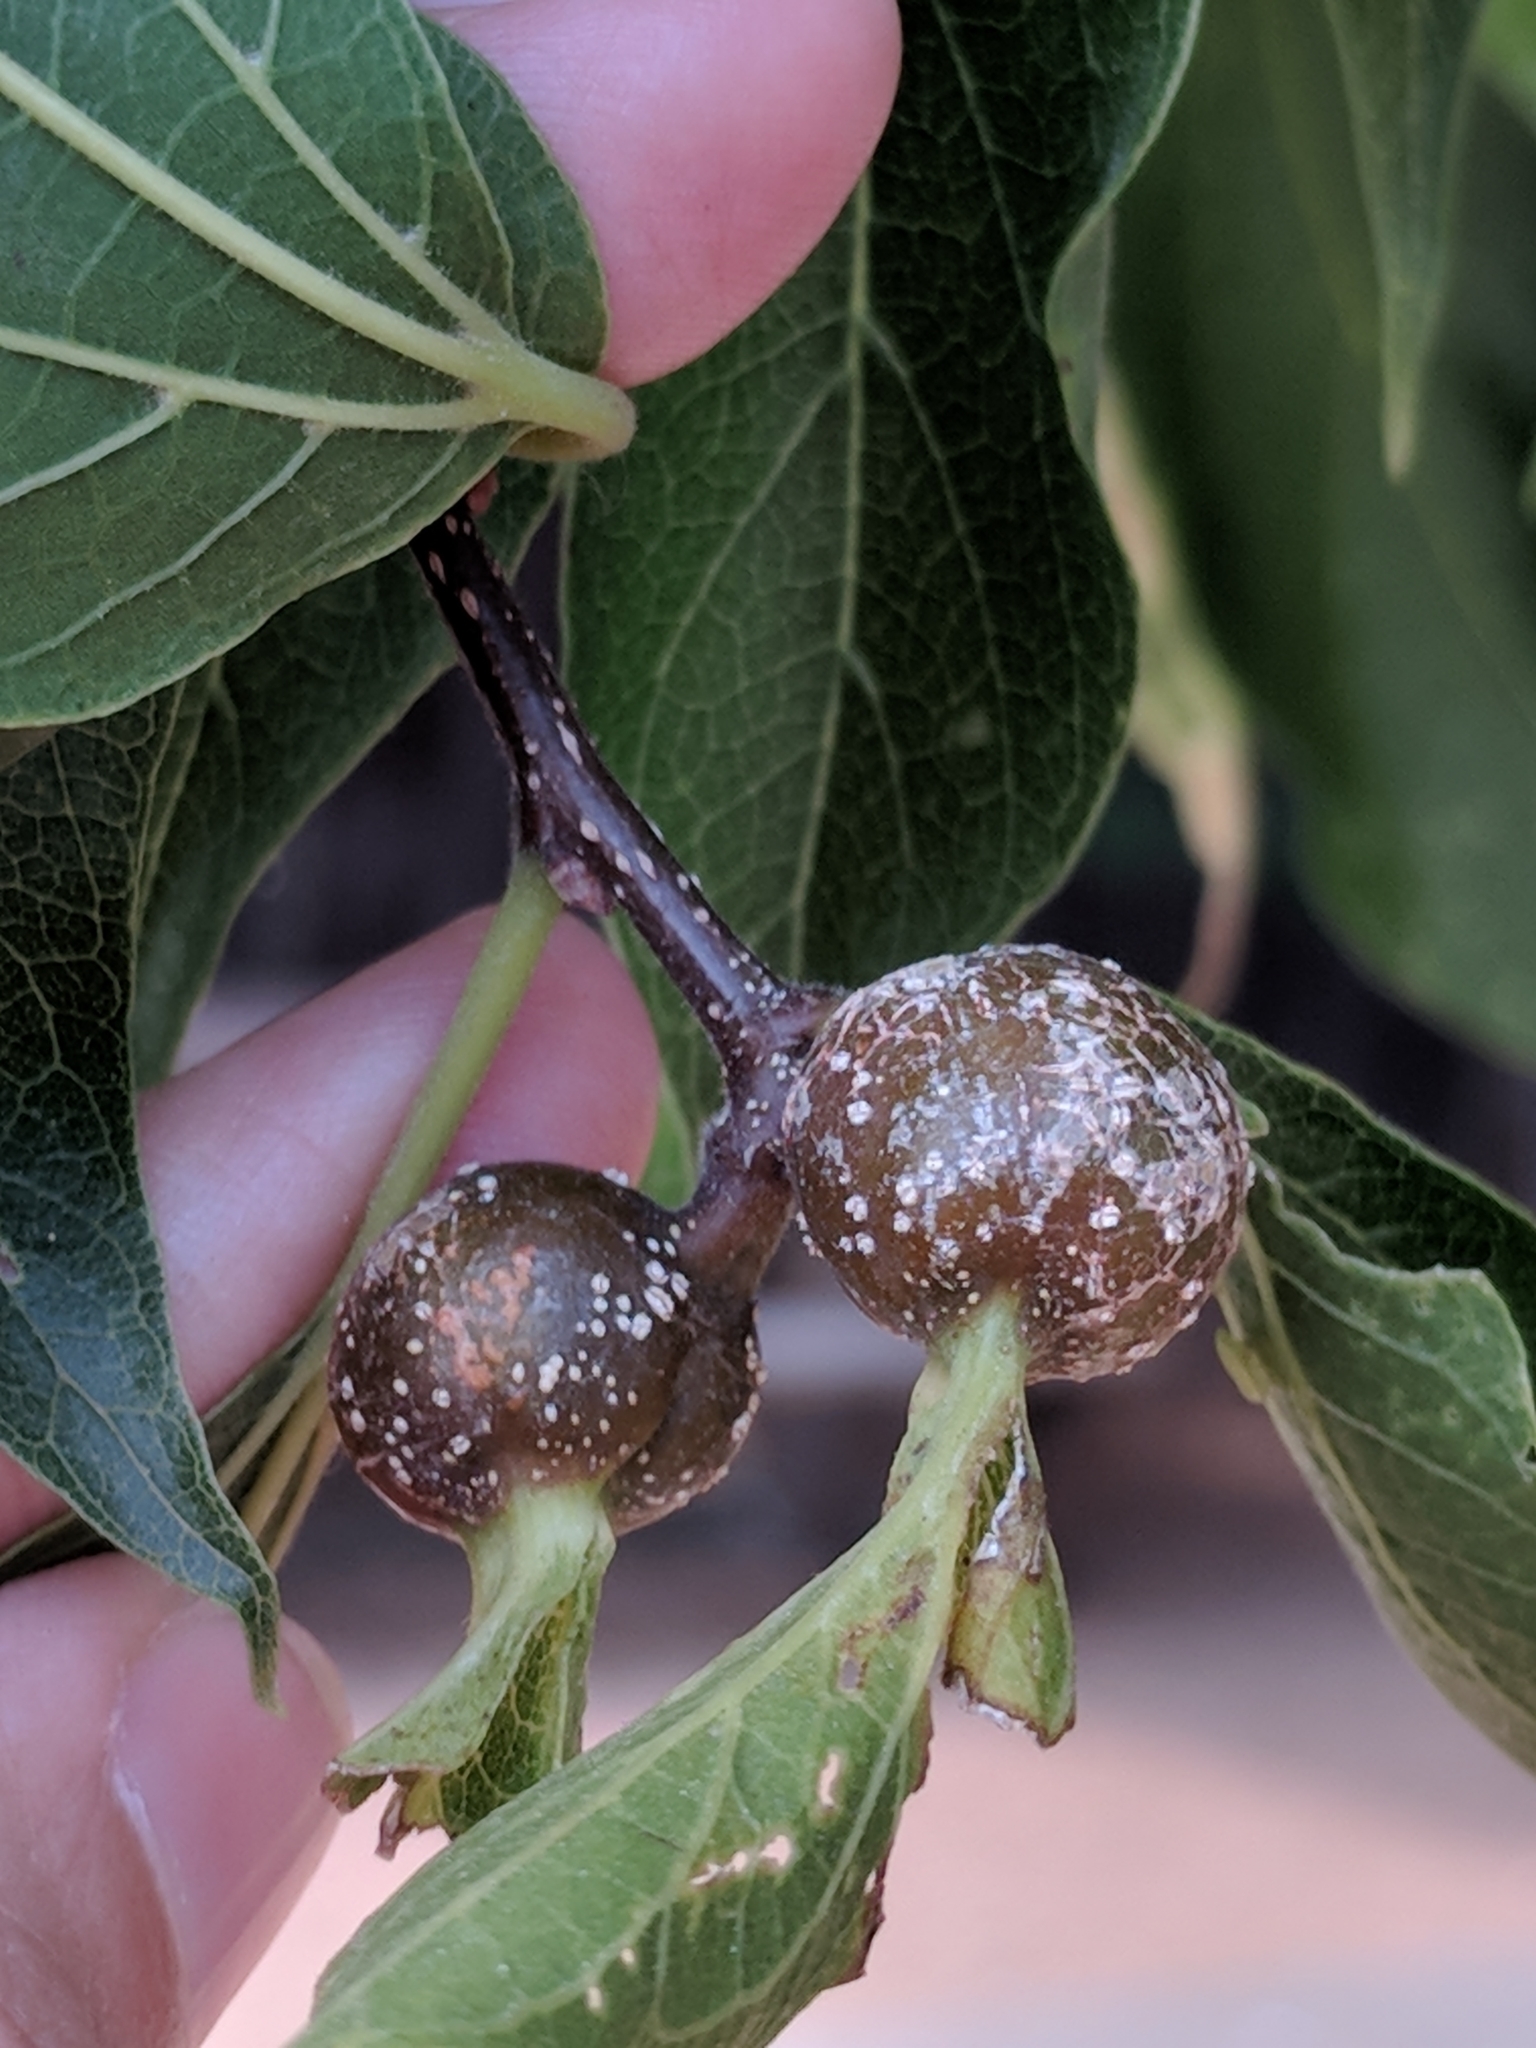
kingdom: Animalia
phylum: Arthropoda
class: Insecta
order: Hemiptera
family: Aphalaridae
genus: Pachypsylla
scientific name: Pachypsylla venusta
